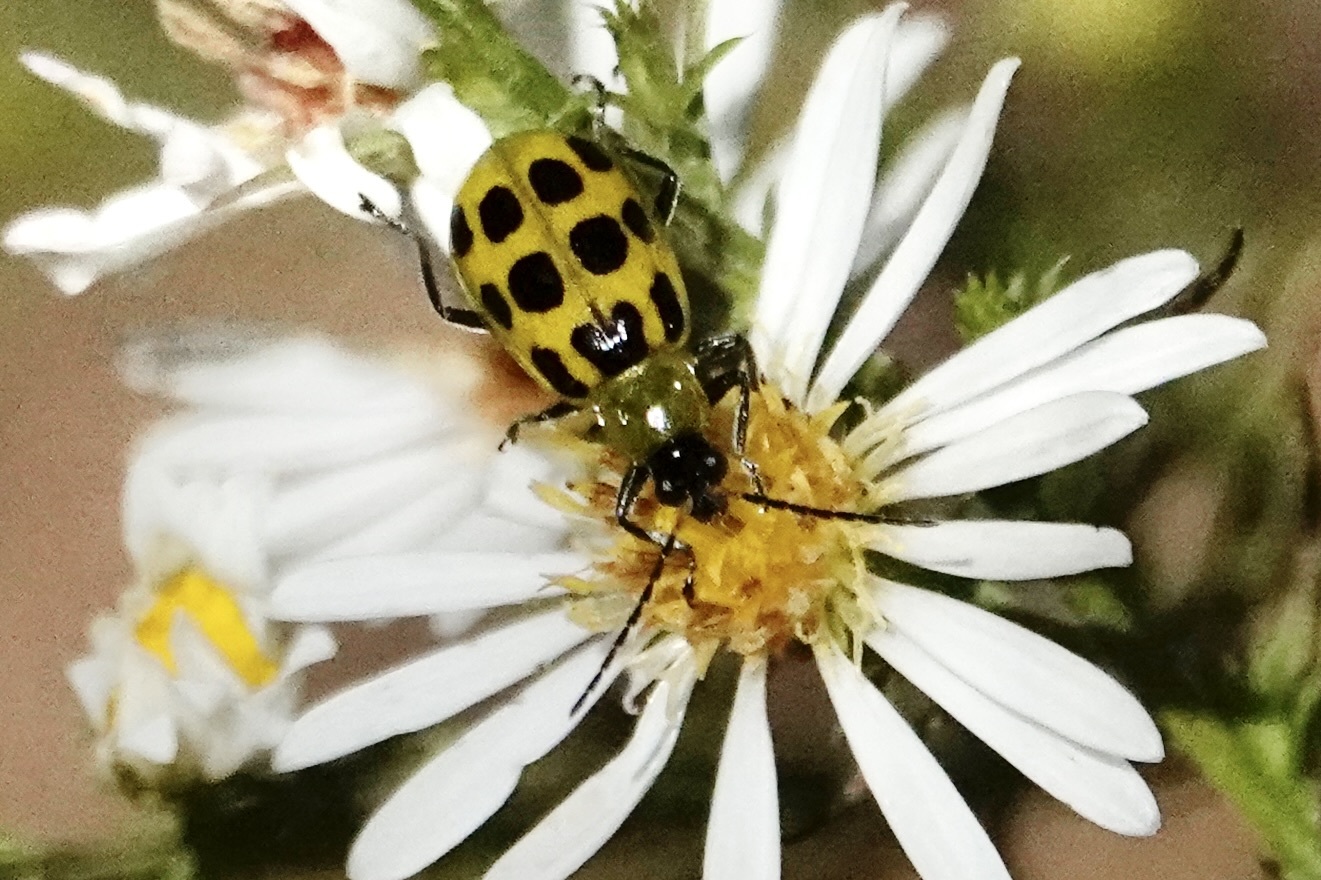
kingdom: Animalia
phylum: Arthropoda
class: Insecta
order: Coleoptera
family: Chrysomelidae
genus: Diabrotica
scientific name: Diabrotica undecimpunctata
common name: Spotted cucumber beetle
